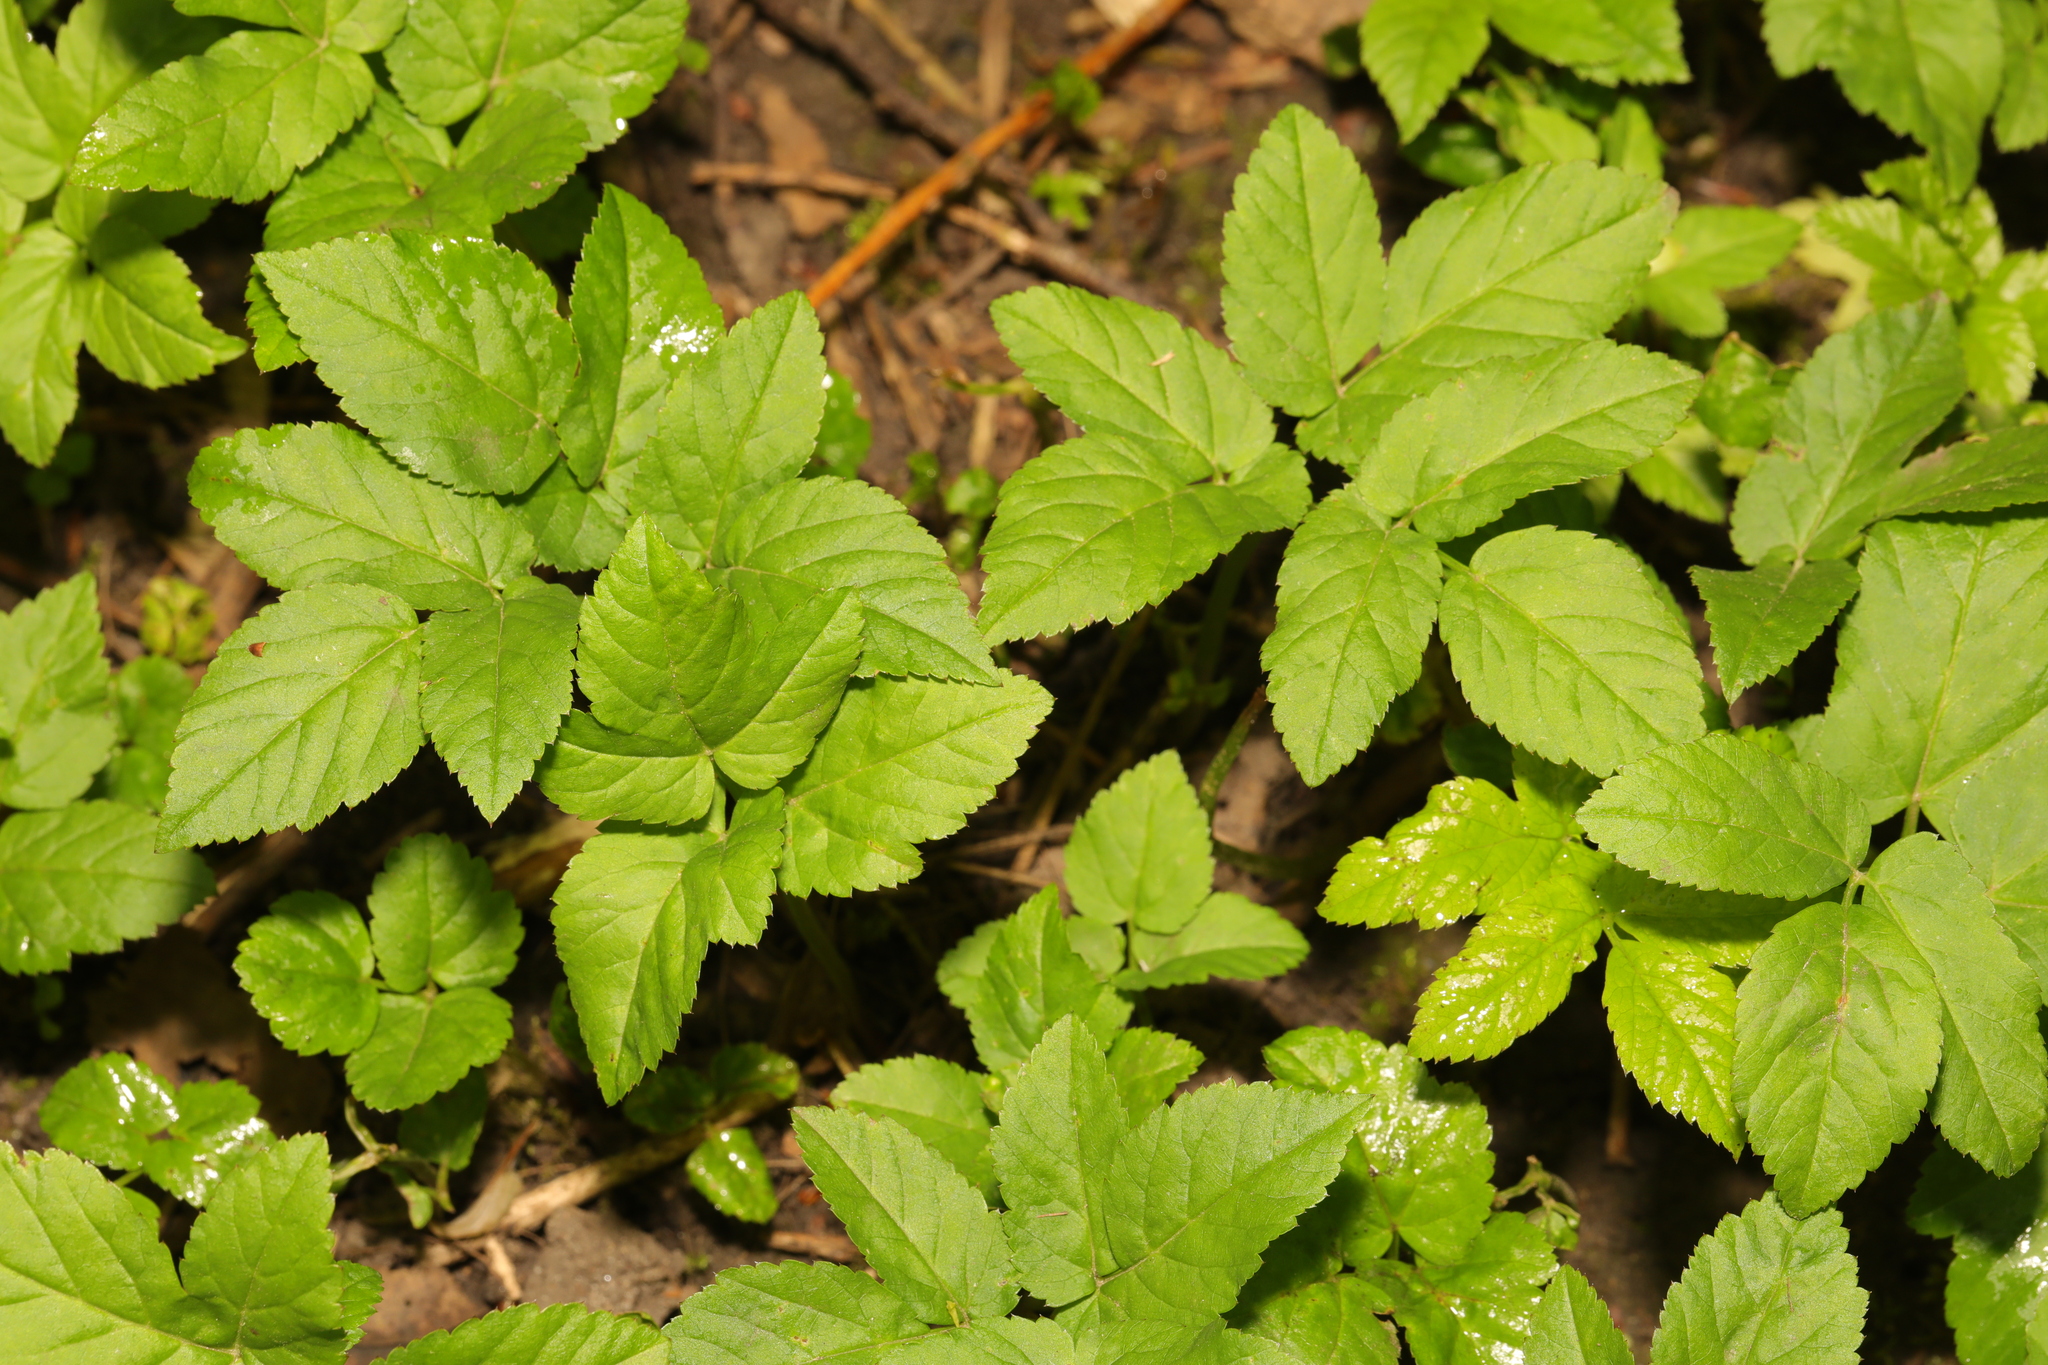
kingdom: Plantae
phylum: Tracheophyta
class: Magnoliopsida
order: Apiales
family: Apiaceae
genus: Aegopodium
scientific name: Aegopodium podagraria
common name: Ground-elder
